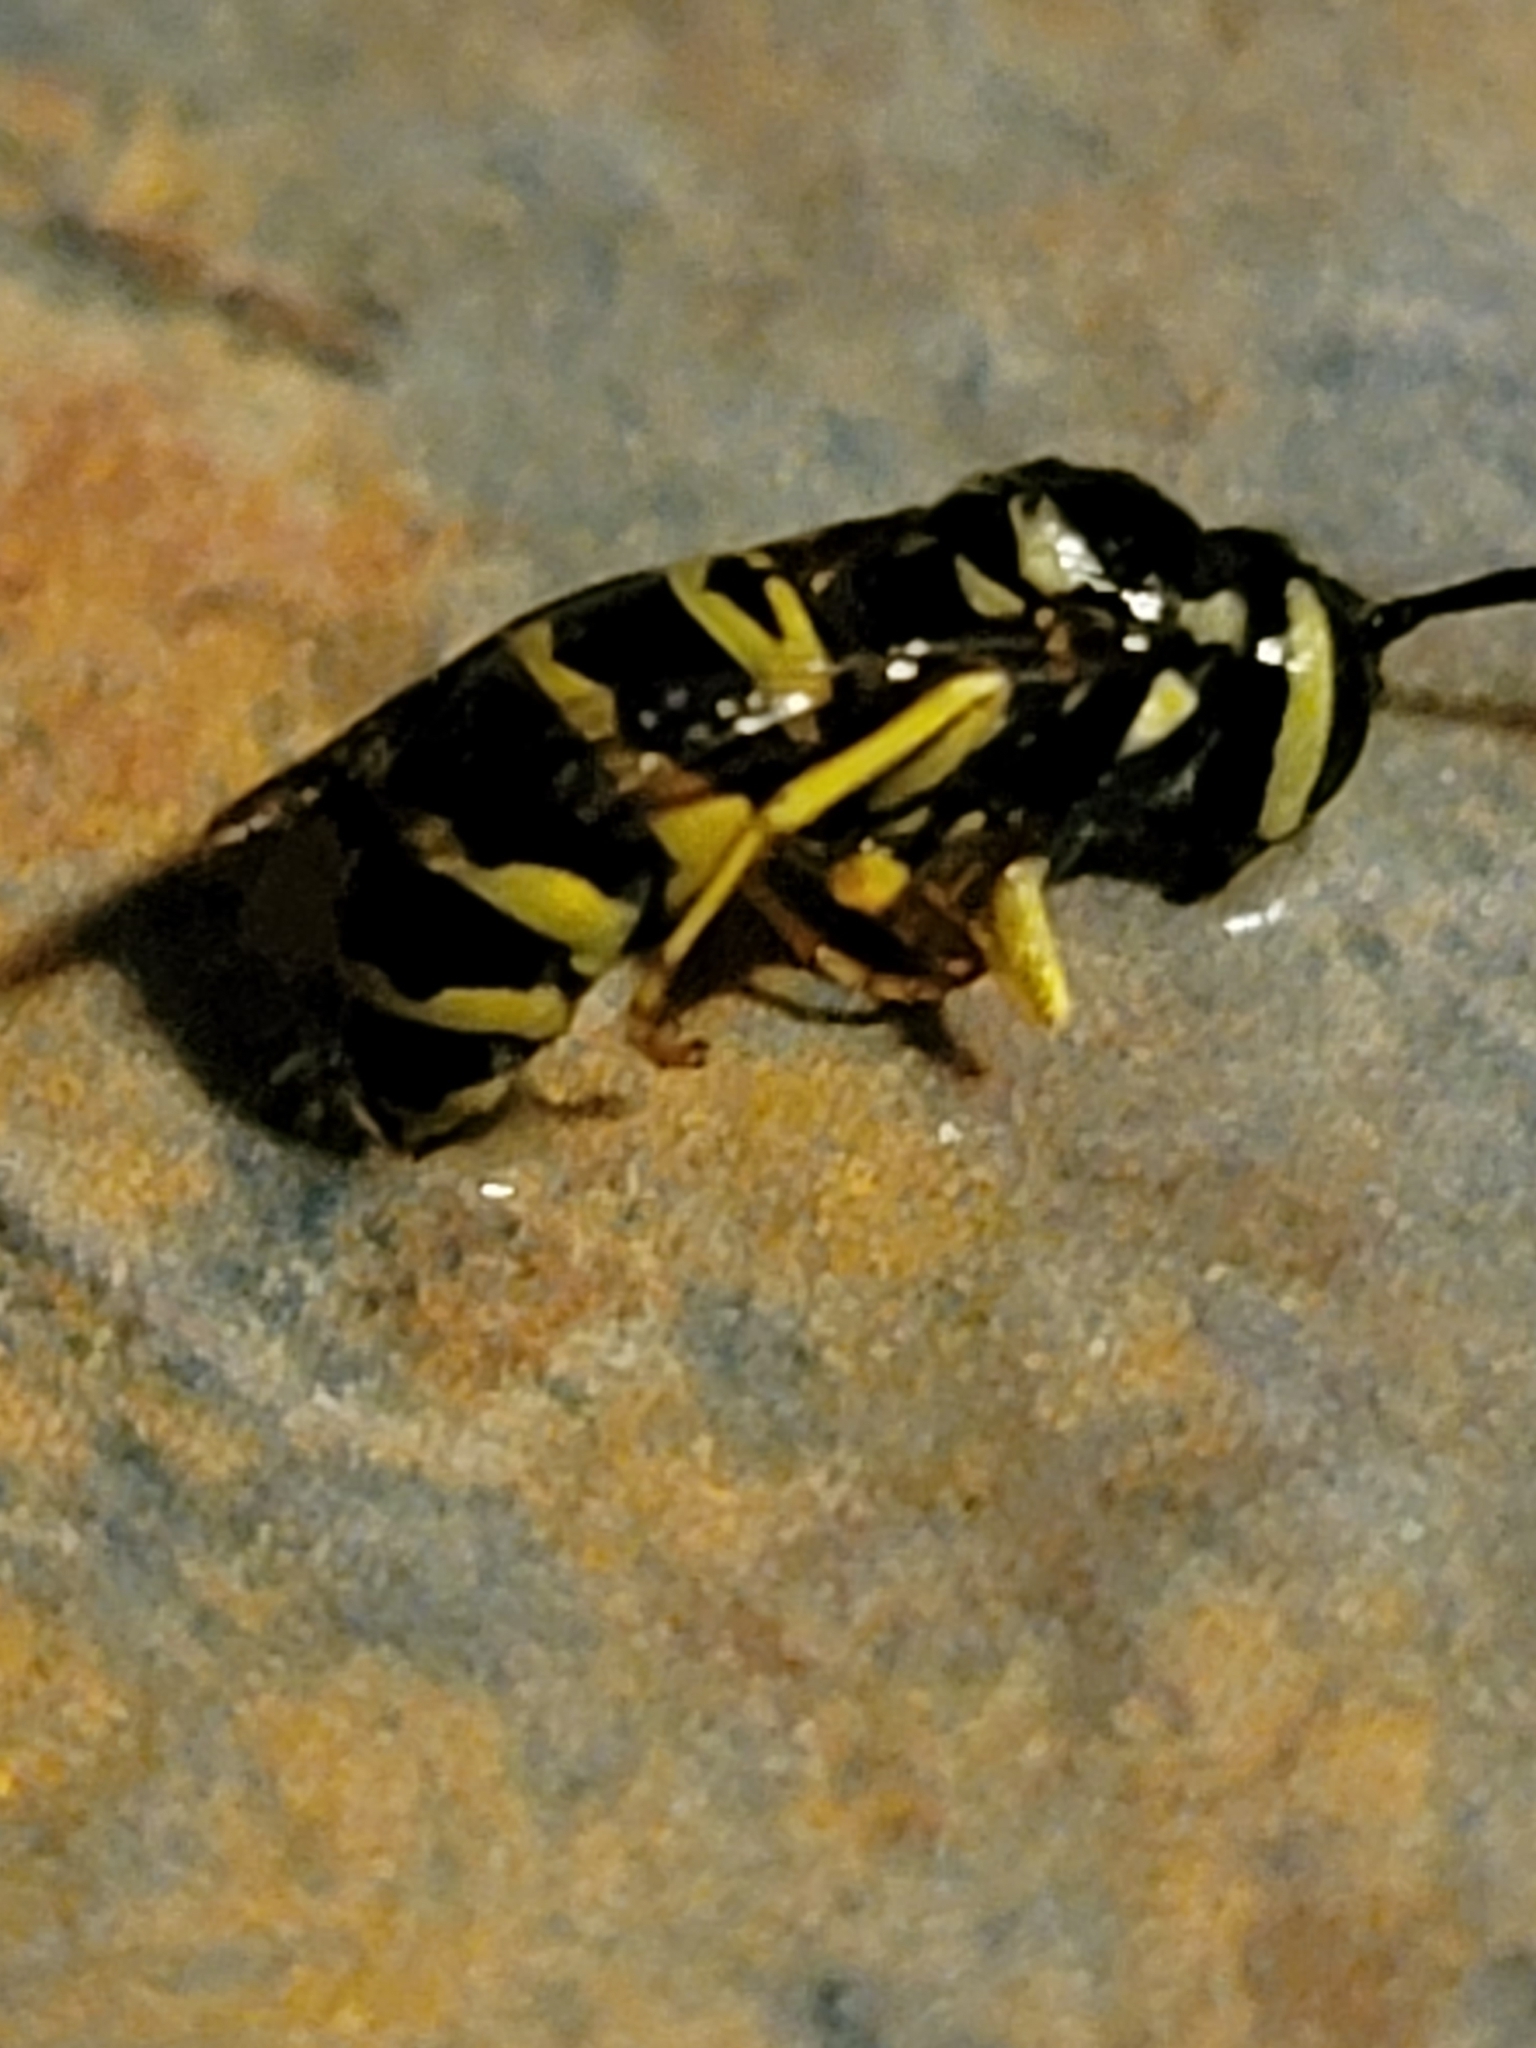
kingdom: Animalia
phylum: Arthropoda
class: Insecta
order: Hymenoptera
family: Vespidae
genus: Vespula
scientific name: Vespula maculifrons
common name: Eastern yellowjacket
